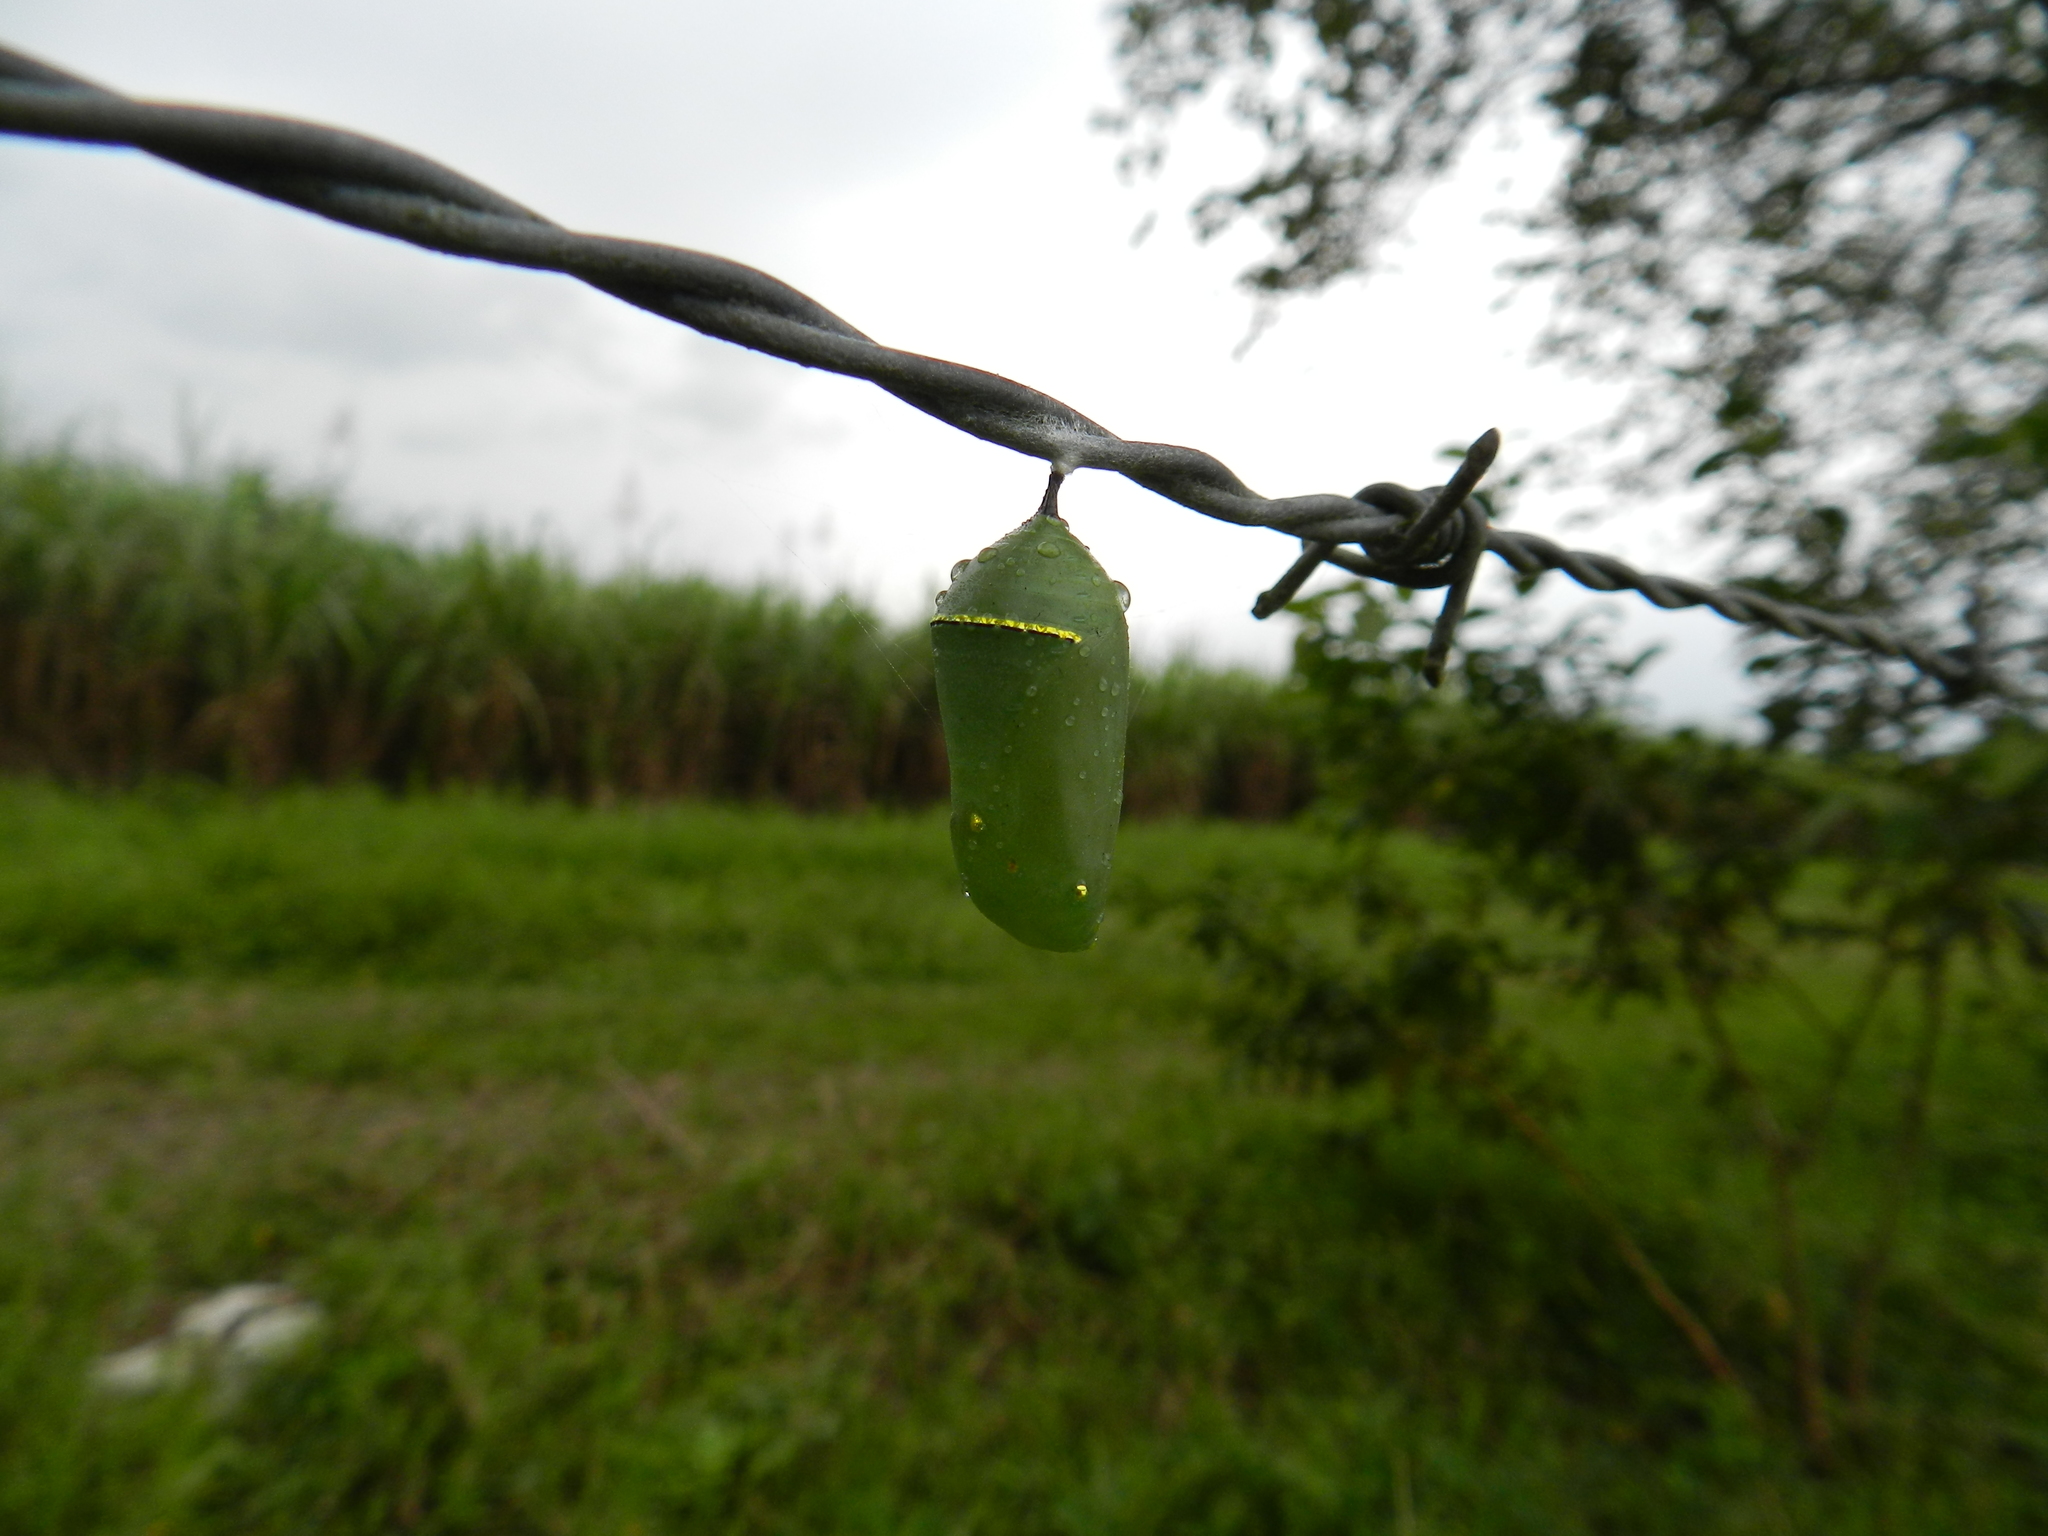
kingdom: Animalia
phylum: Arthropoda
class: Insecta
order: Lepidoptera
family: Nymphalidae
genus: Danaus
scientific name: Danaus plexippus
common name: Monarch
